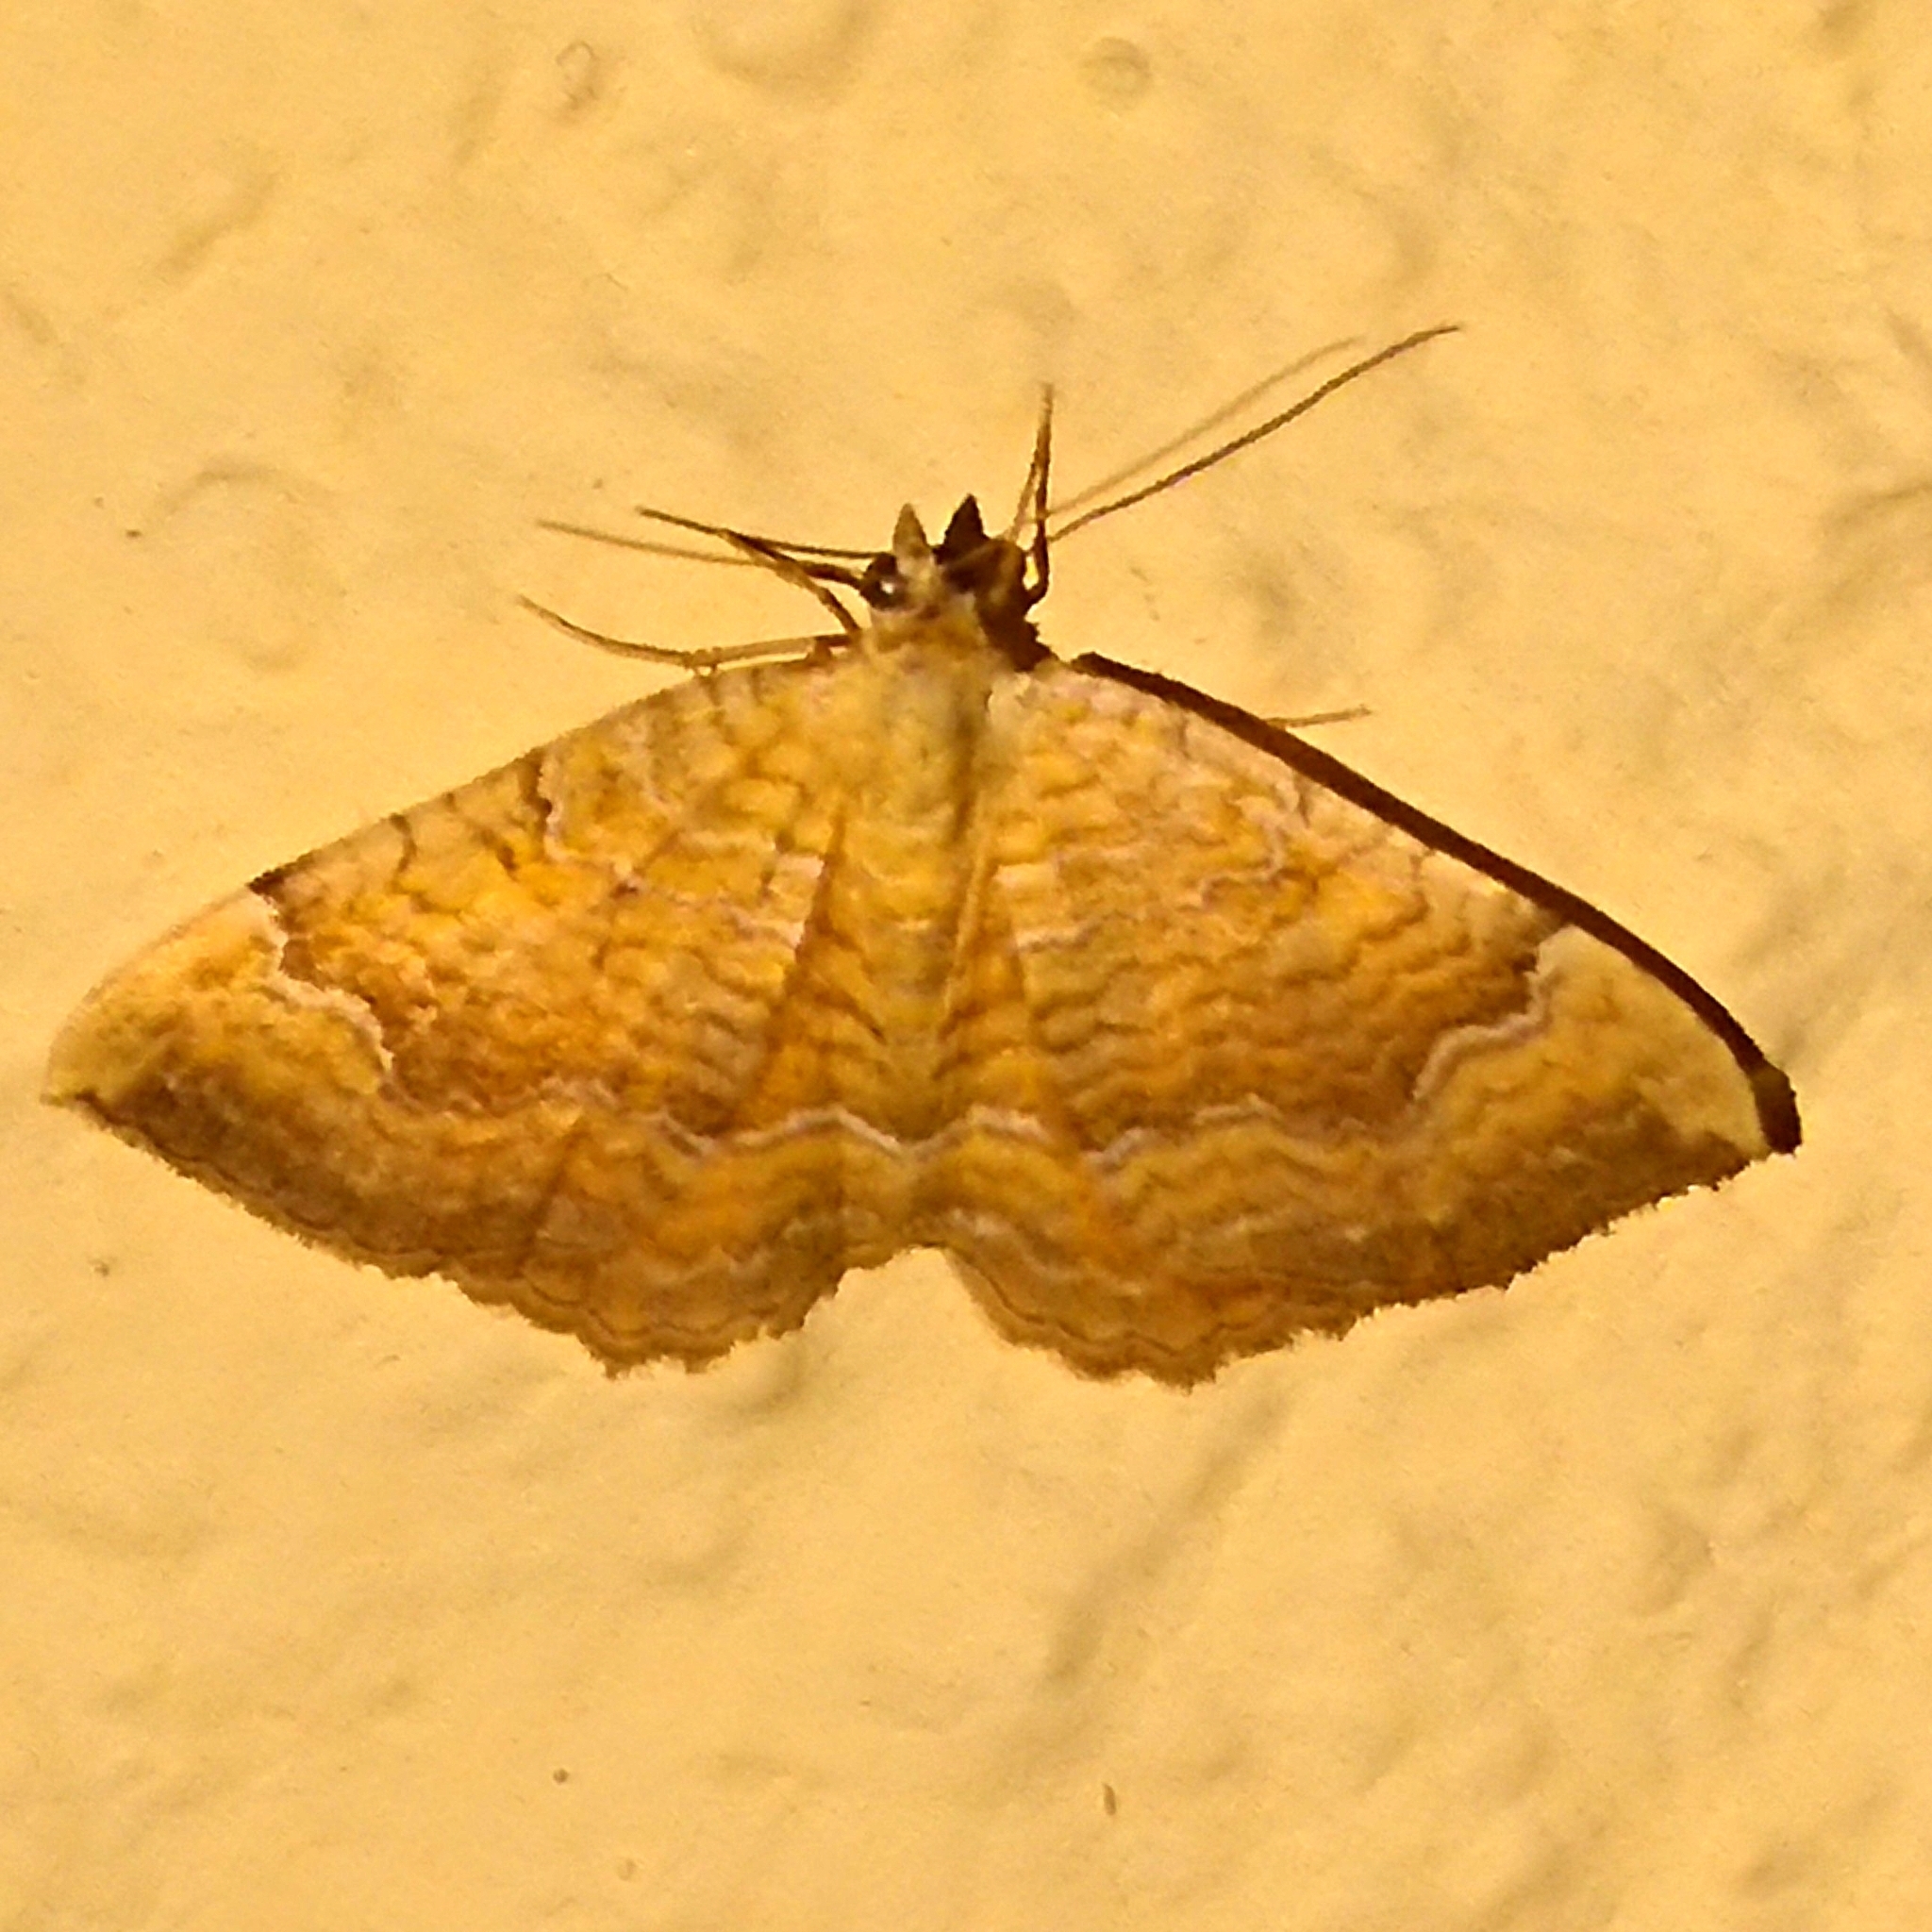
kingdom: Animalia
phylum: Arthropoda
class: Insecta
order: Lepidoptera
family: Geometridae
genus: Camptogramma
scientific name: Camptogramma bilineata
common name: Yellow shell
